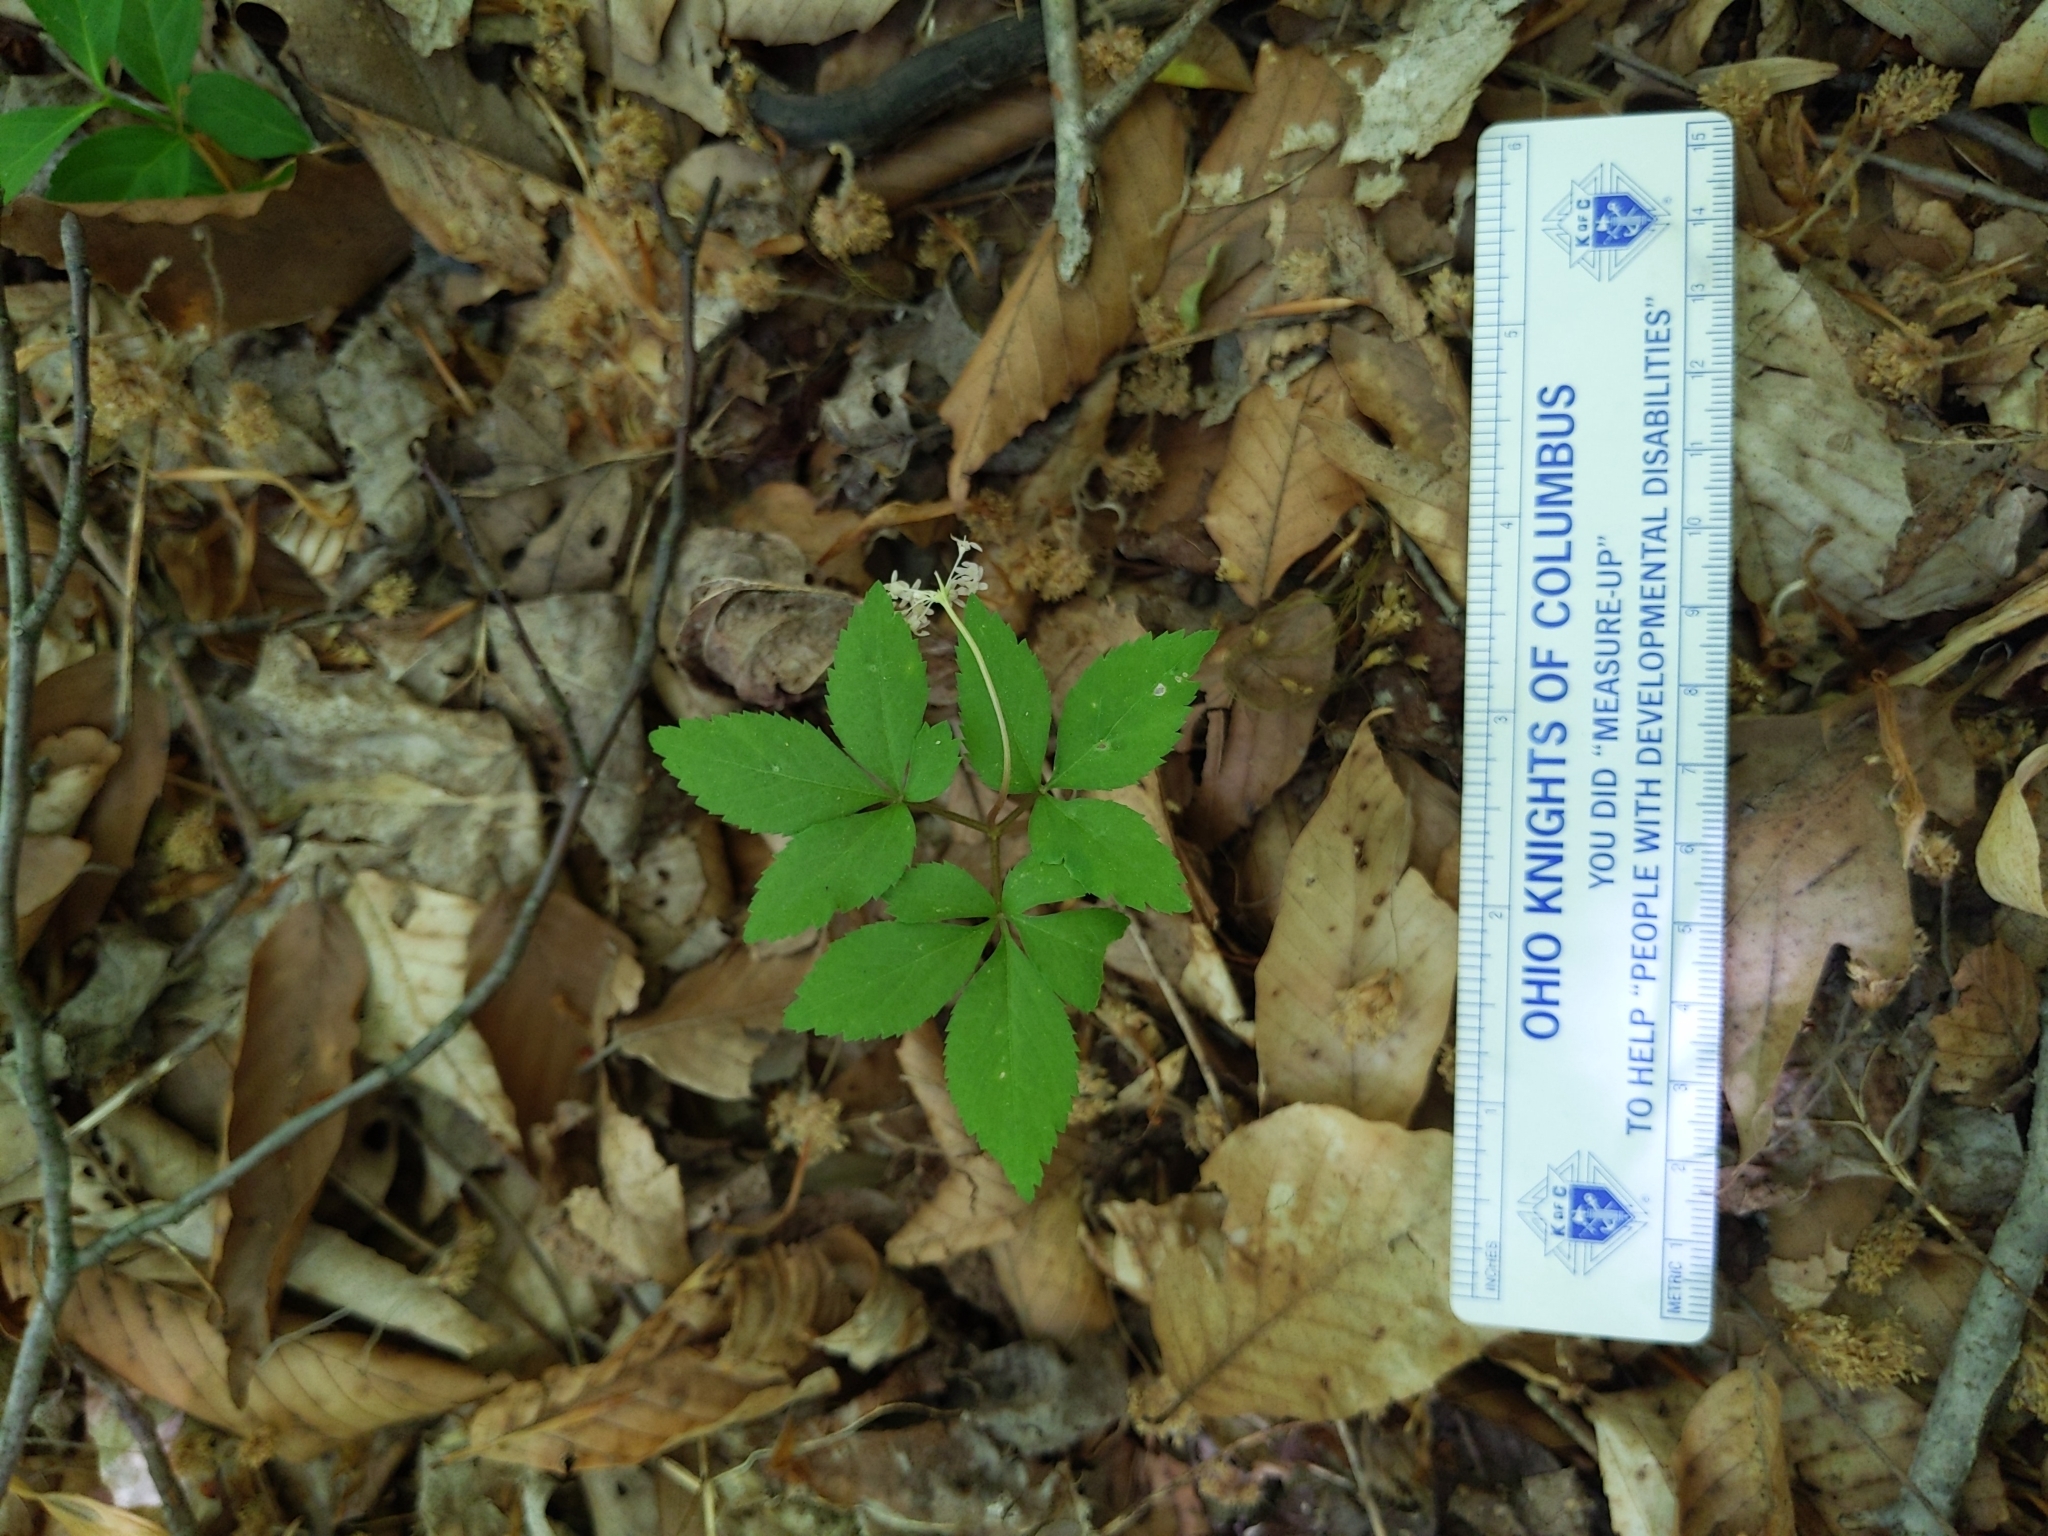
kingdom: Plantae
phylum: Tracheophyta
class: Magnoliopsida
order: Apiales
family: Araliaceae
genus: Panax
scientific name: Panax trifolius
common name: Dwarf ginseng
